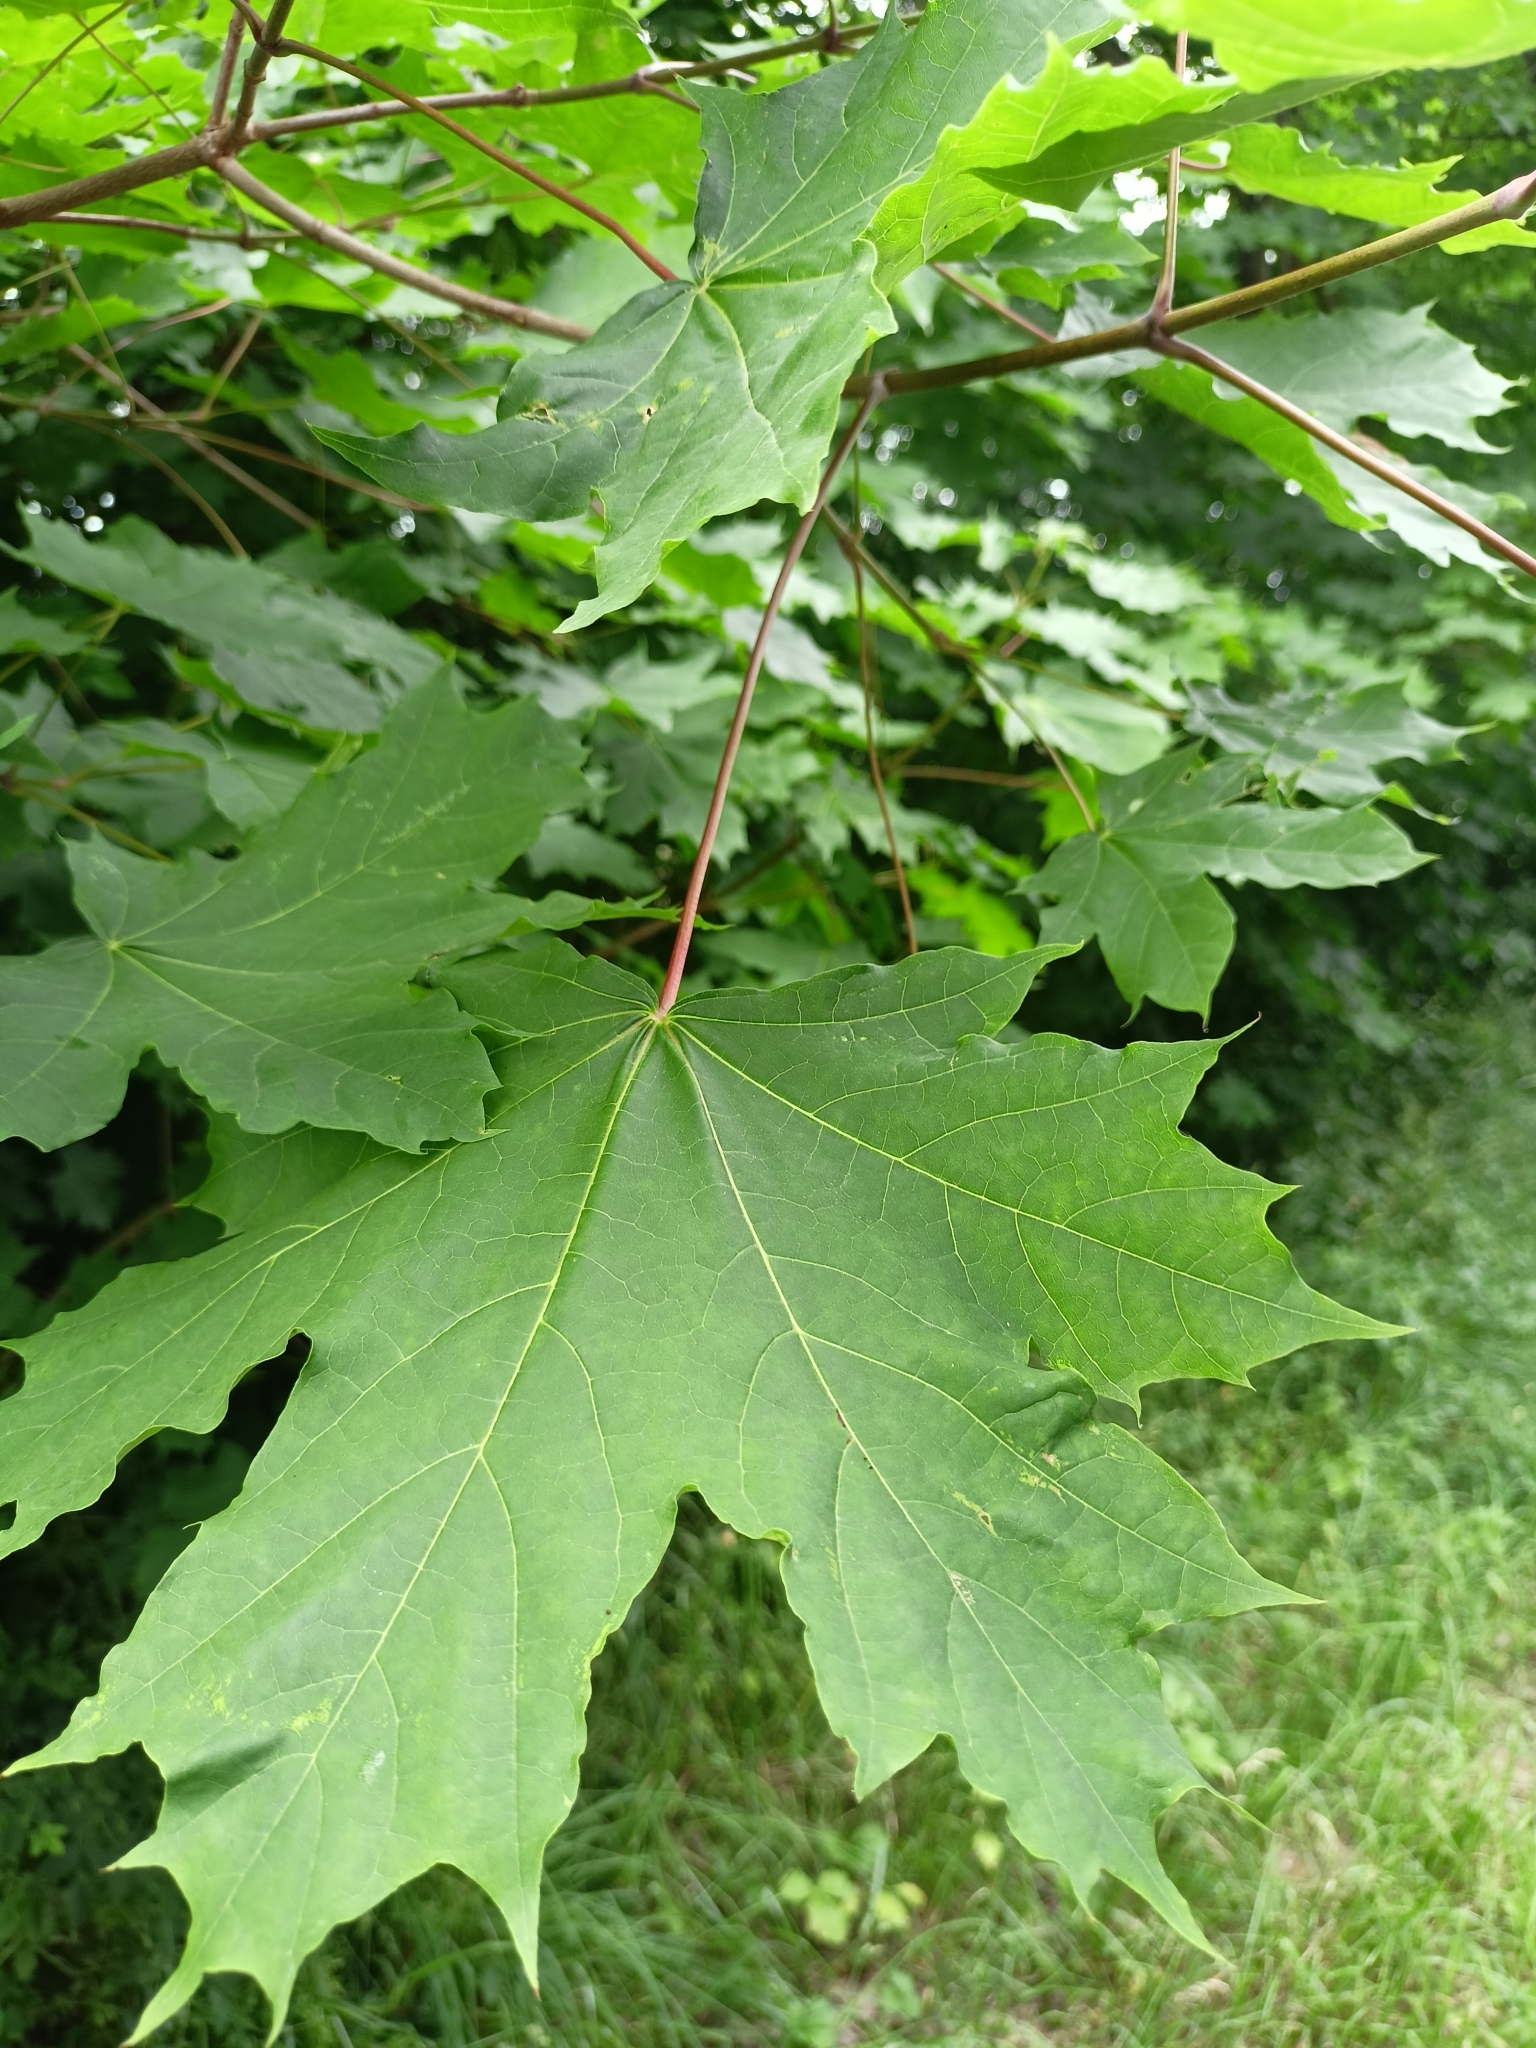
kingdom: Plantae
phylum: Tracheophyta
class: Magnoliopsida
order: Sapindales
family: Sapindaceae
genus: Acer
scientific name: Acer platanoides
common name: Norway maple
